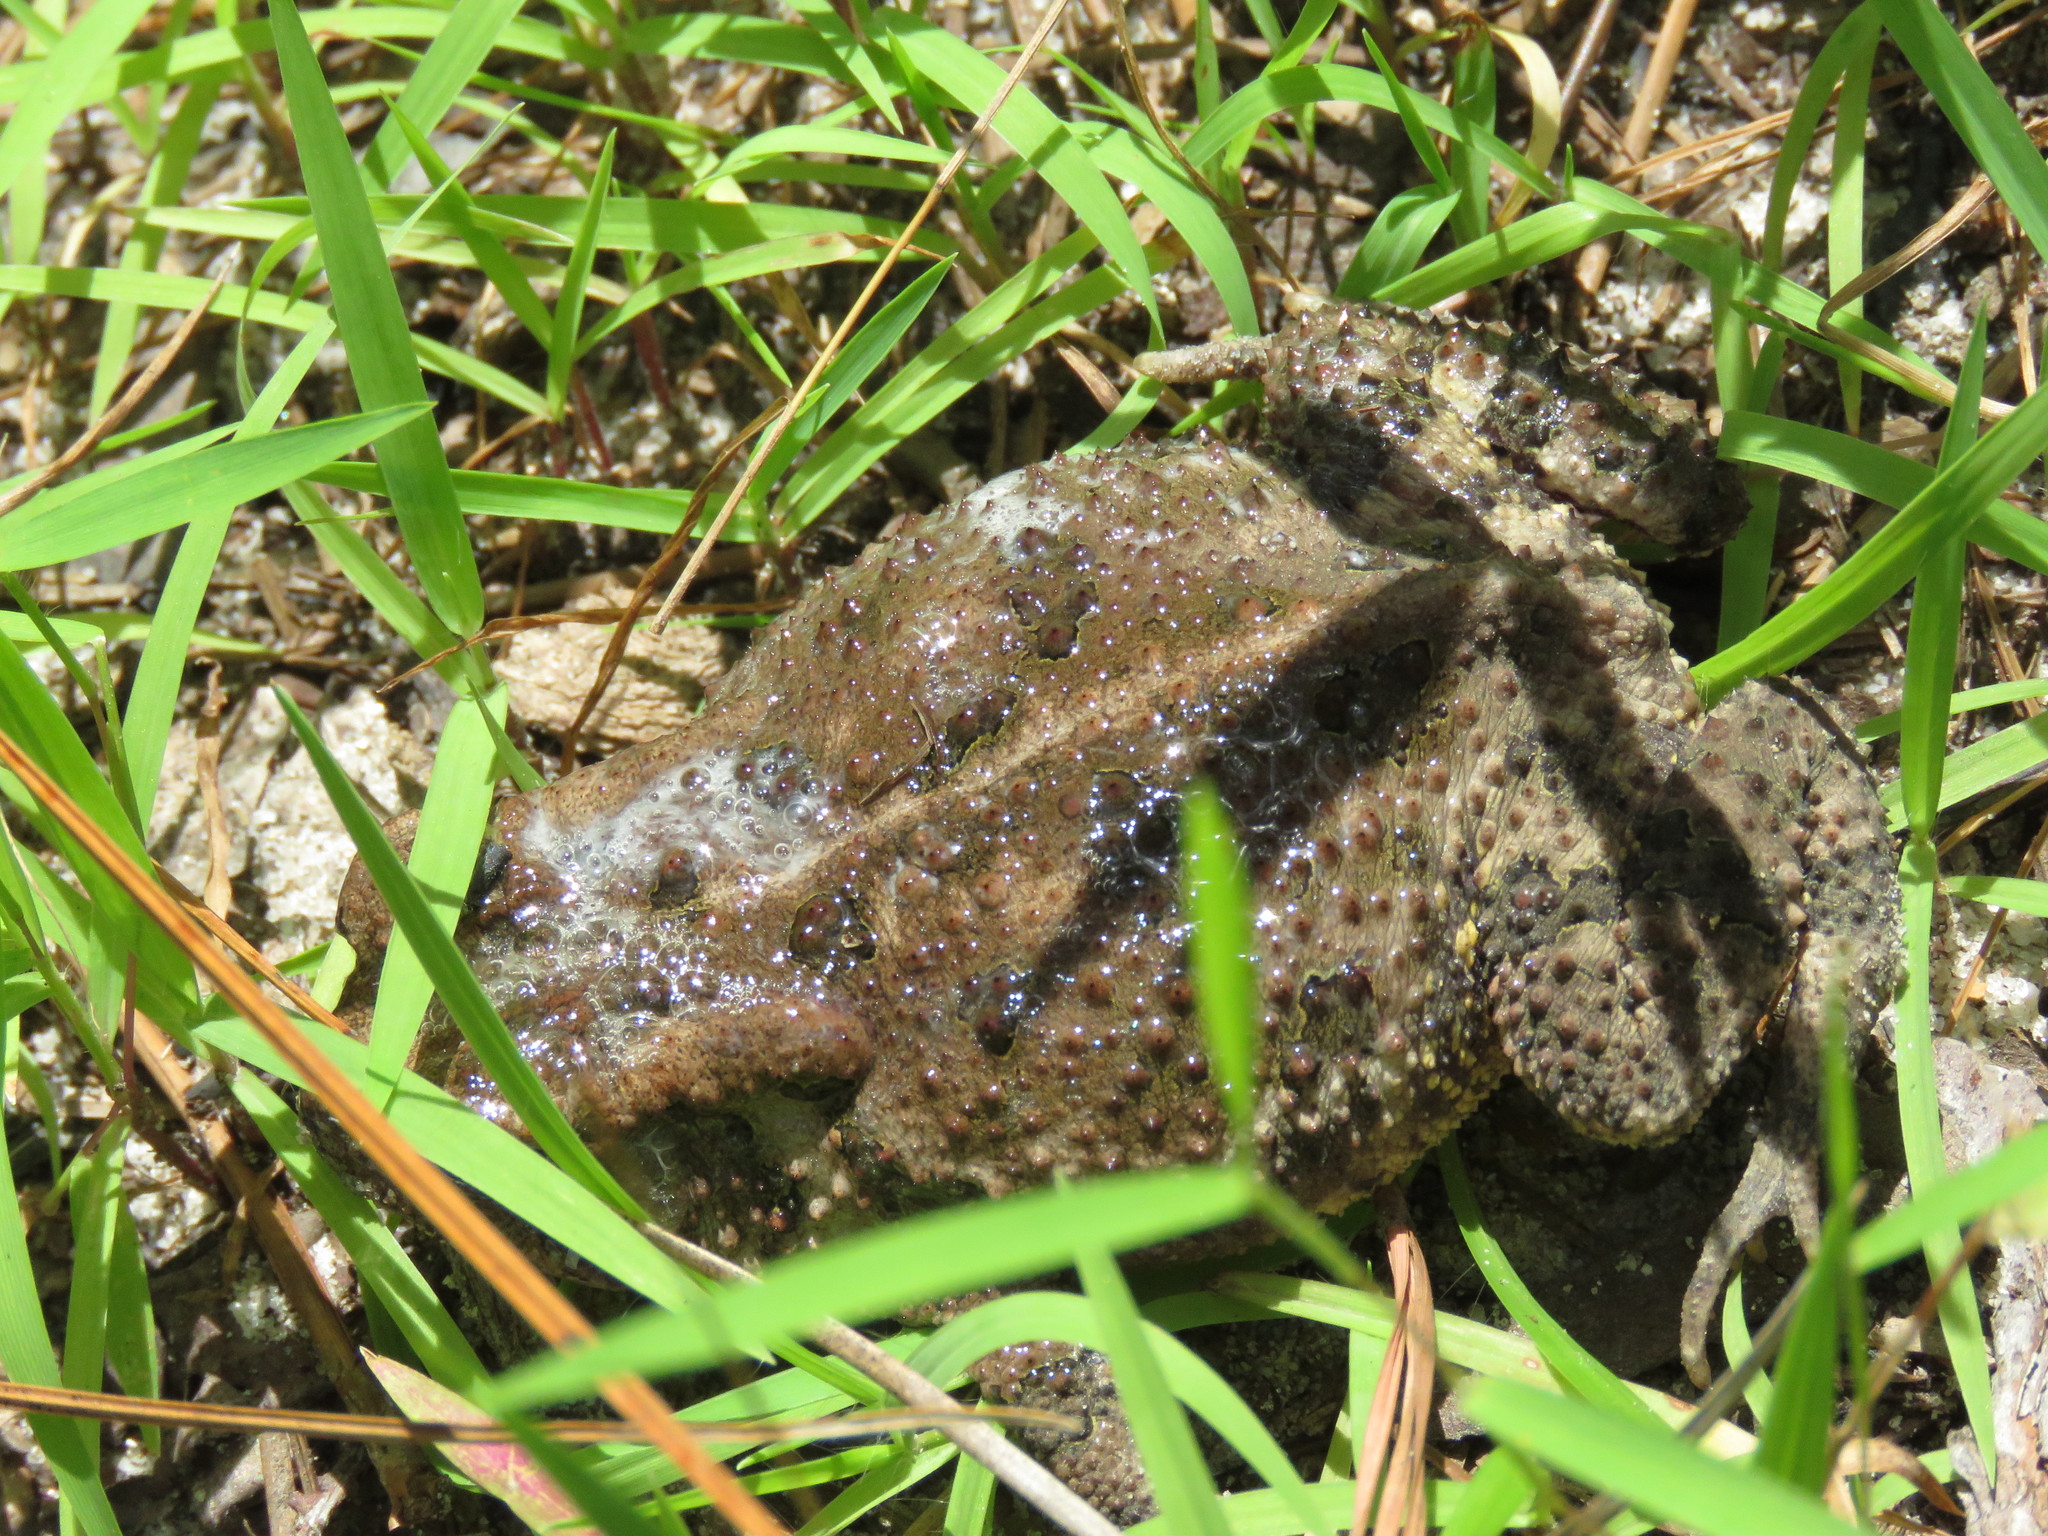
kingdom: Animalia
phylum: Chordata
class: Amphibia
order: Anura
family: Bufonidae
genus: Anaxyrus
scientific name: Anaxyrus fowleri
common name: Fowler's toad
